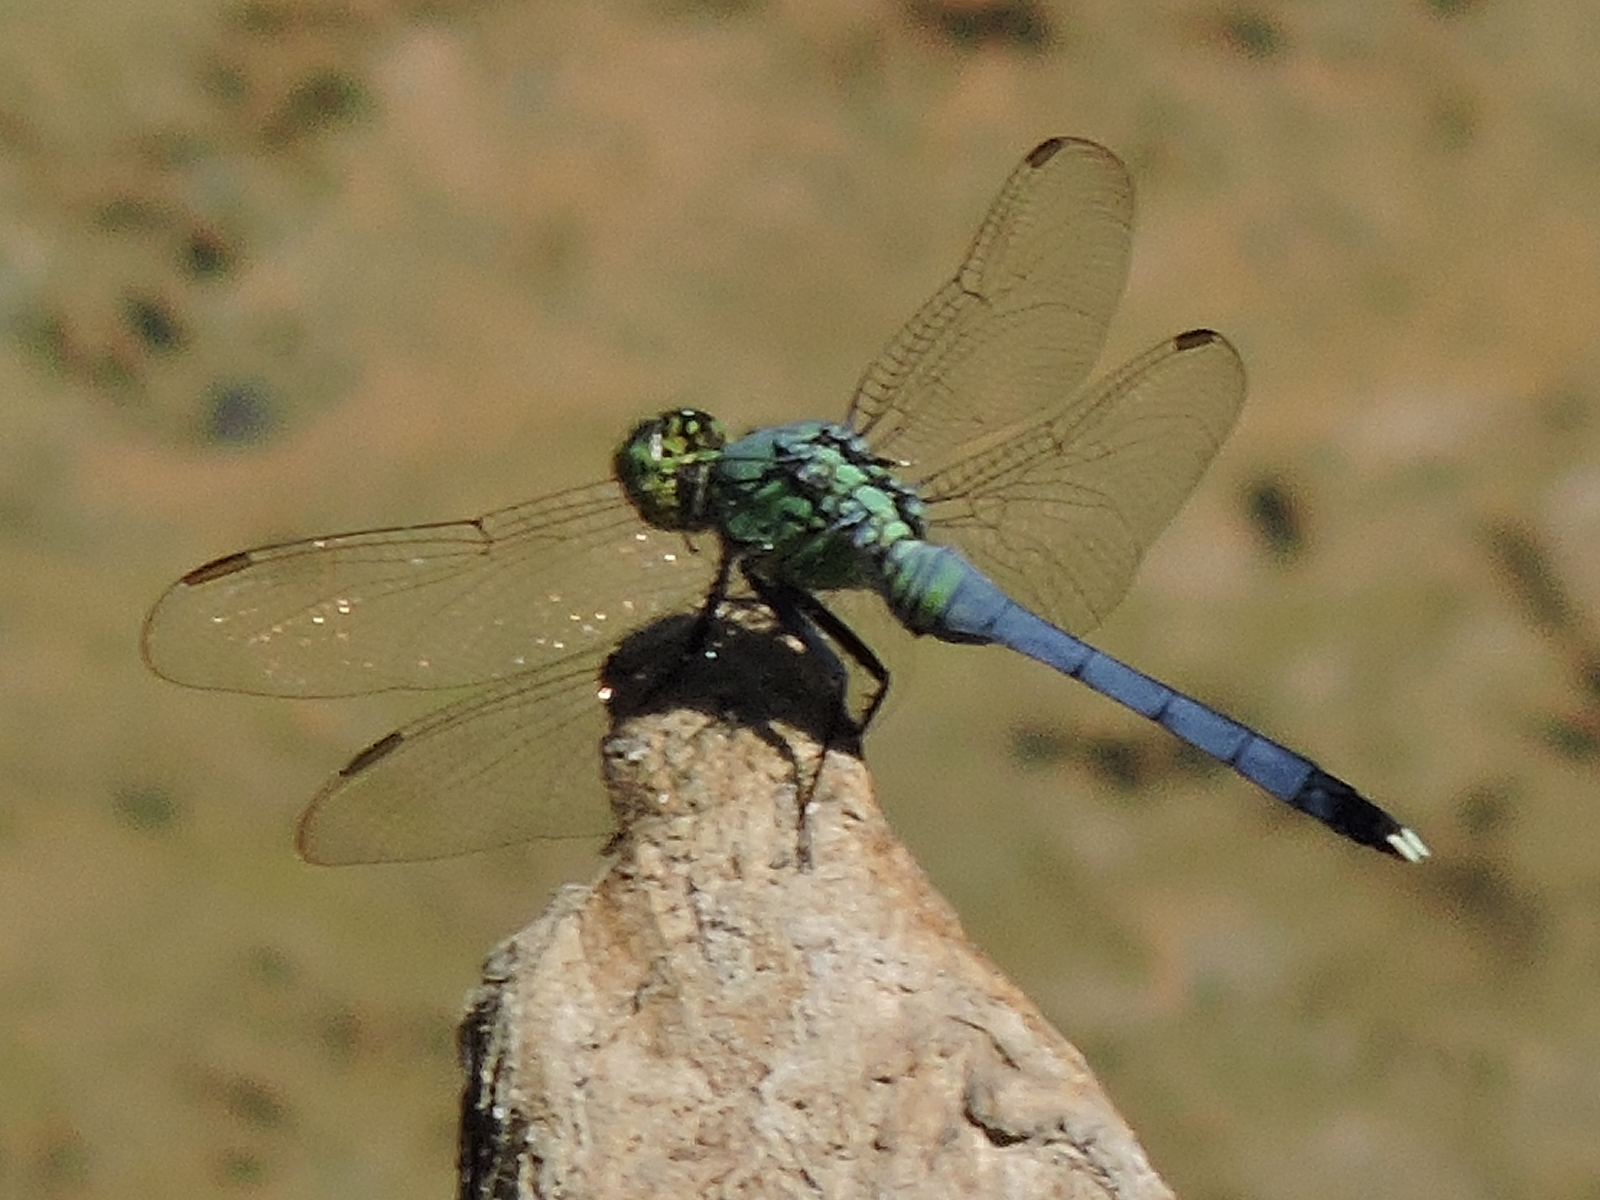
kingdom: Animalia
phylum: Arthropoda
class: Insecta
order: Odonata
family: Libellulidae
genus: Erythemis
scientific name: Erythemis simplicicollis
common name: Eastern pondhawk
